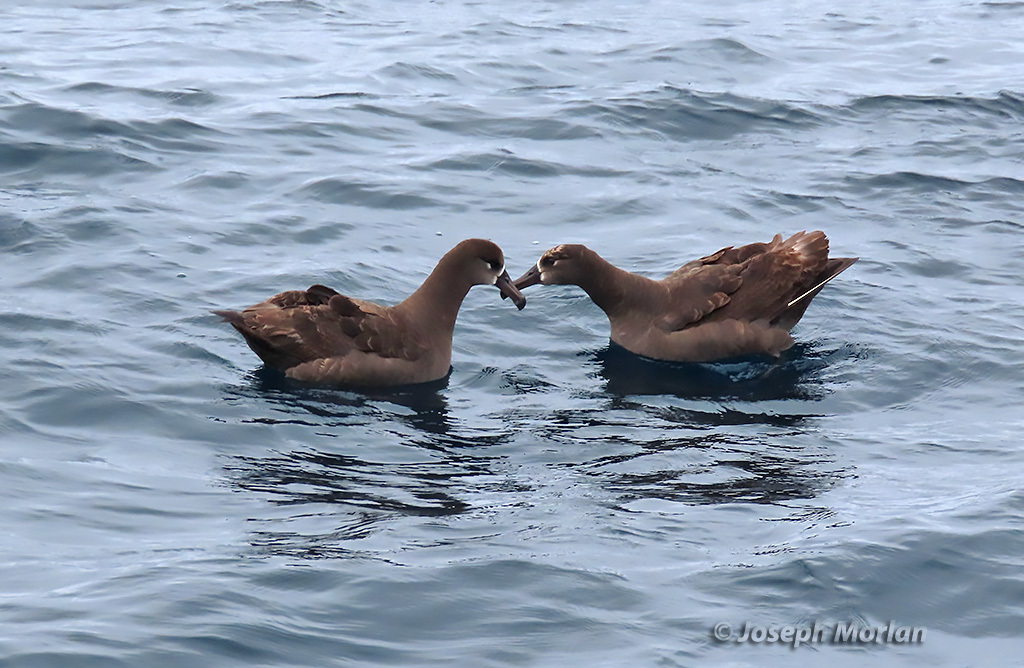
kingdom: Animalia
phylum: Chordata
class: Aves
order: Procellariiformes
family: Diomedeidae
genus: Phoebastria
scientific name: Phoebastria nigripes
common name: Black-footed albatross
